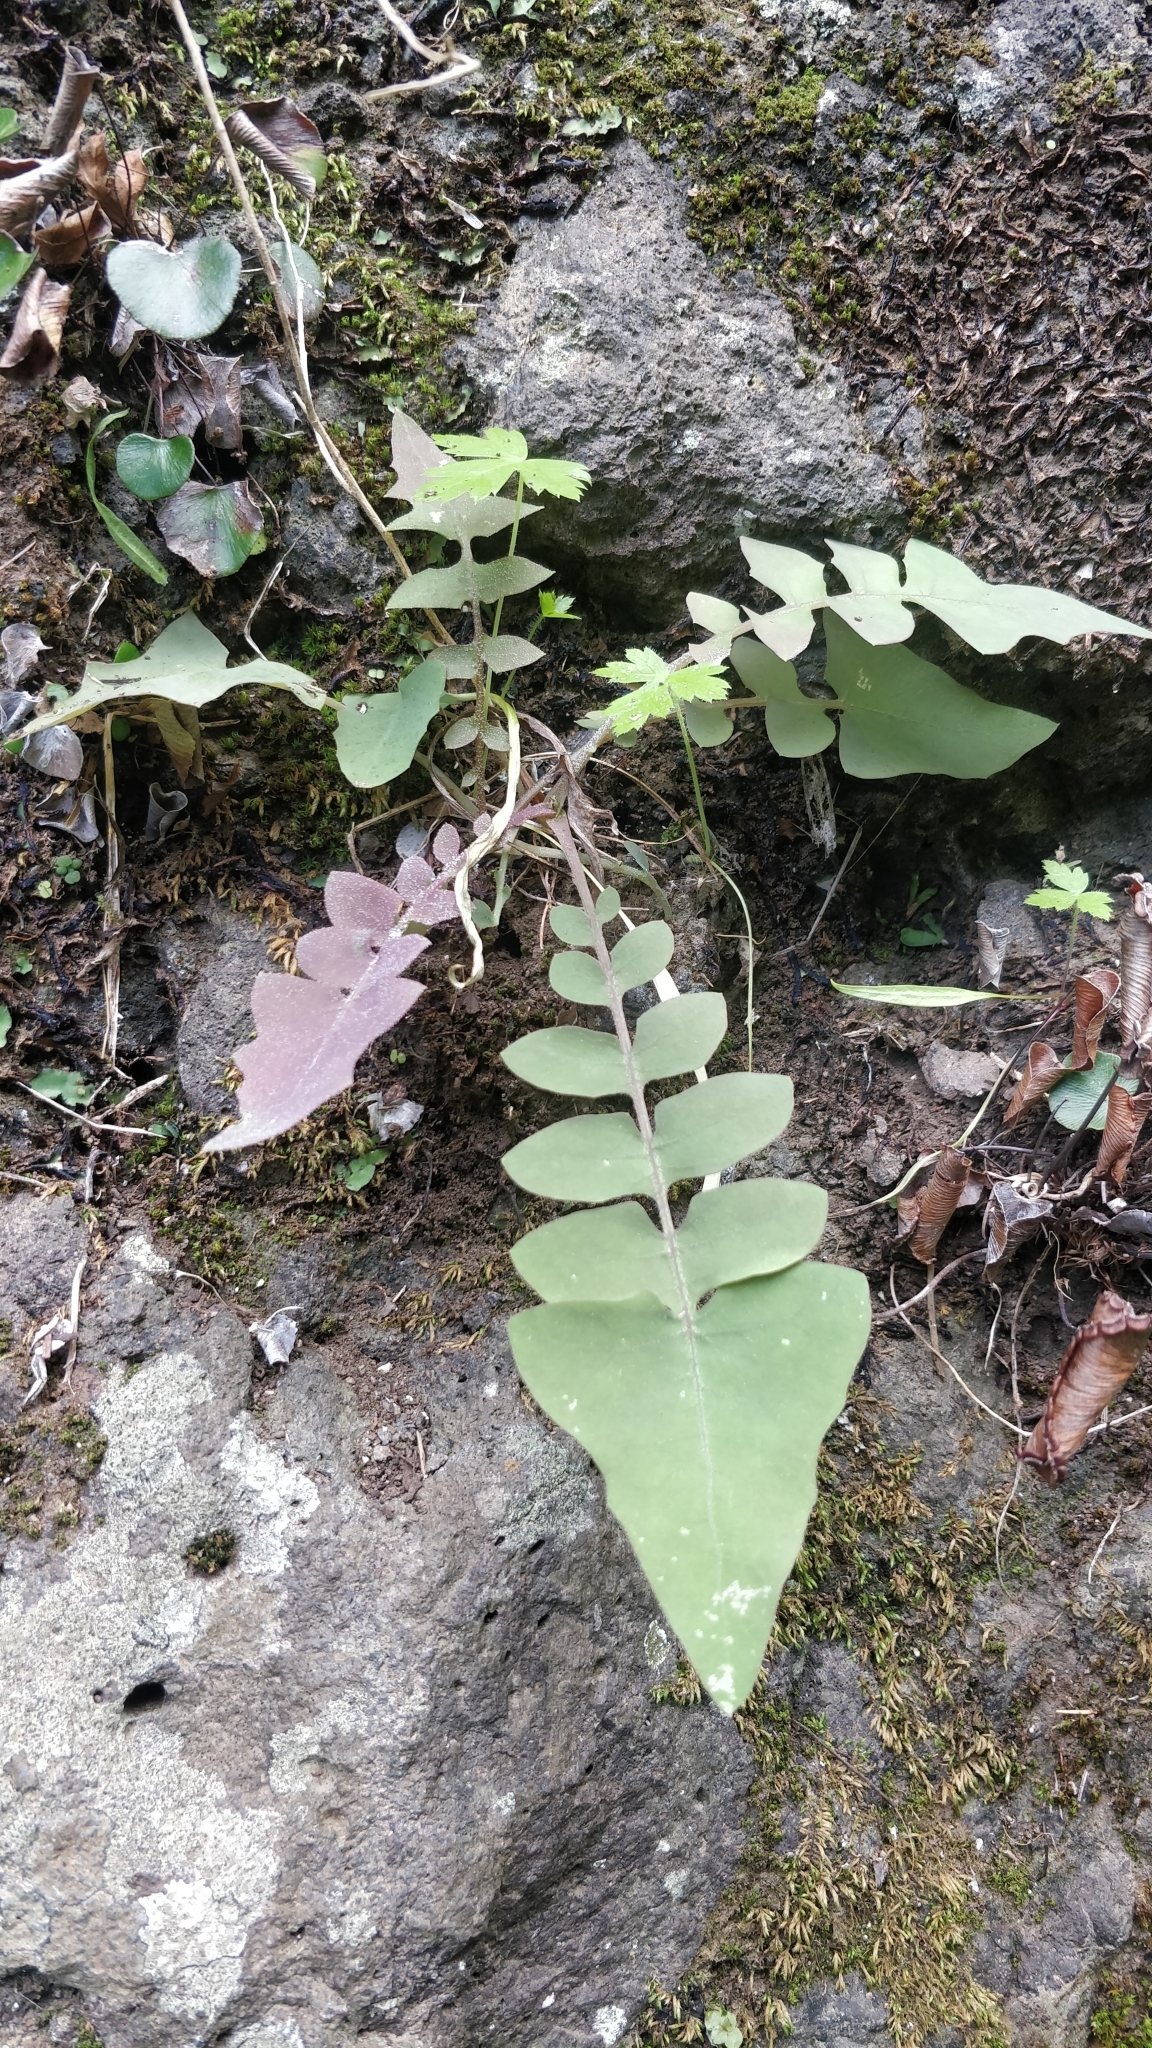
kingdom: Plantae
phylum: Tracheophyta
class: Magnoliopsida
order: Asterales
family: Asteraceae
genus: Sonchus
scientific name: Sonchus gummifer
